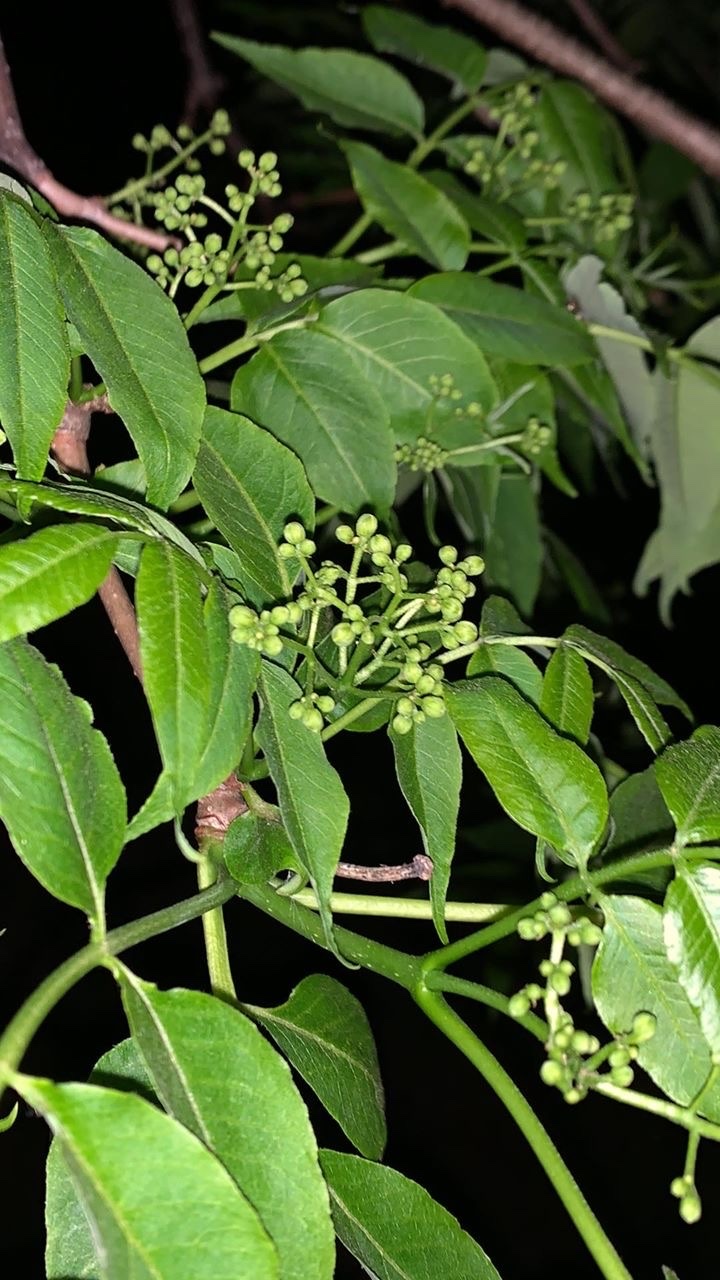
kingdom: Plantae
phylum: Tracheophyta
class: Magnoliopsida
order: Sapindales
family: Rutaceae
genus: Phellodendron
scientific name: Phellodendron amurense
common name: Amur corktree
